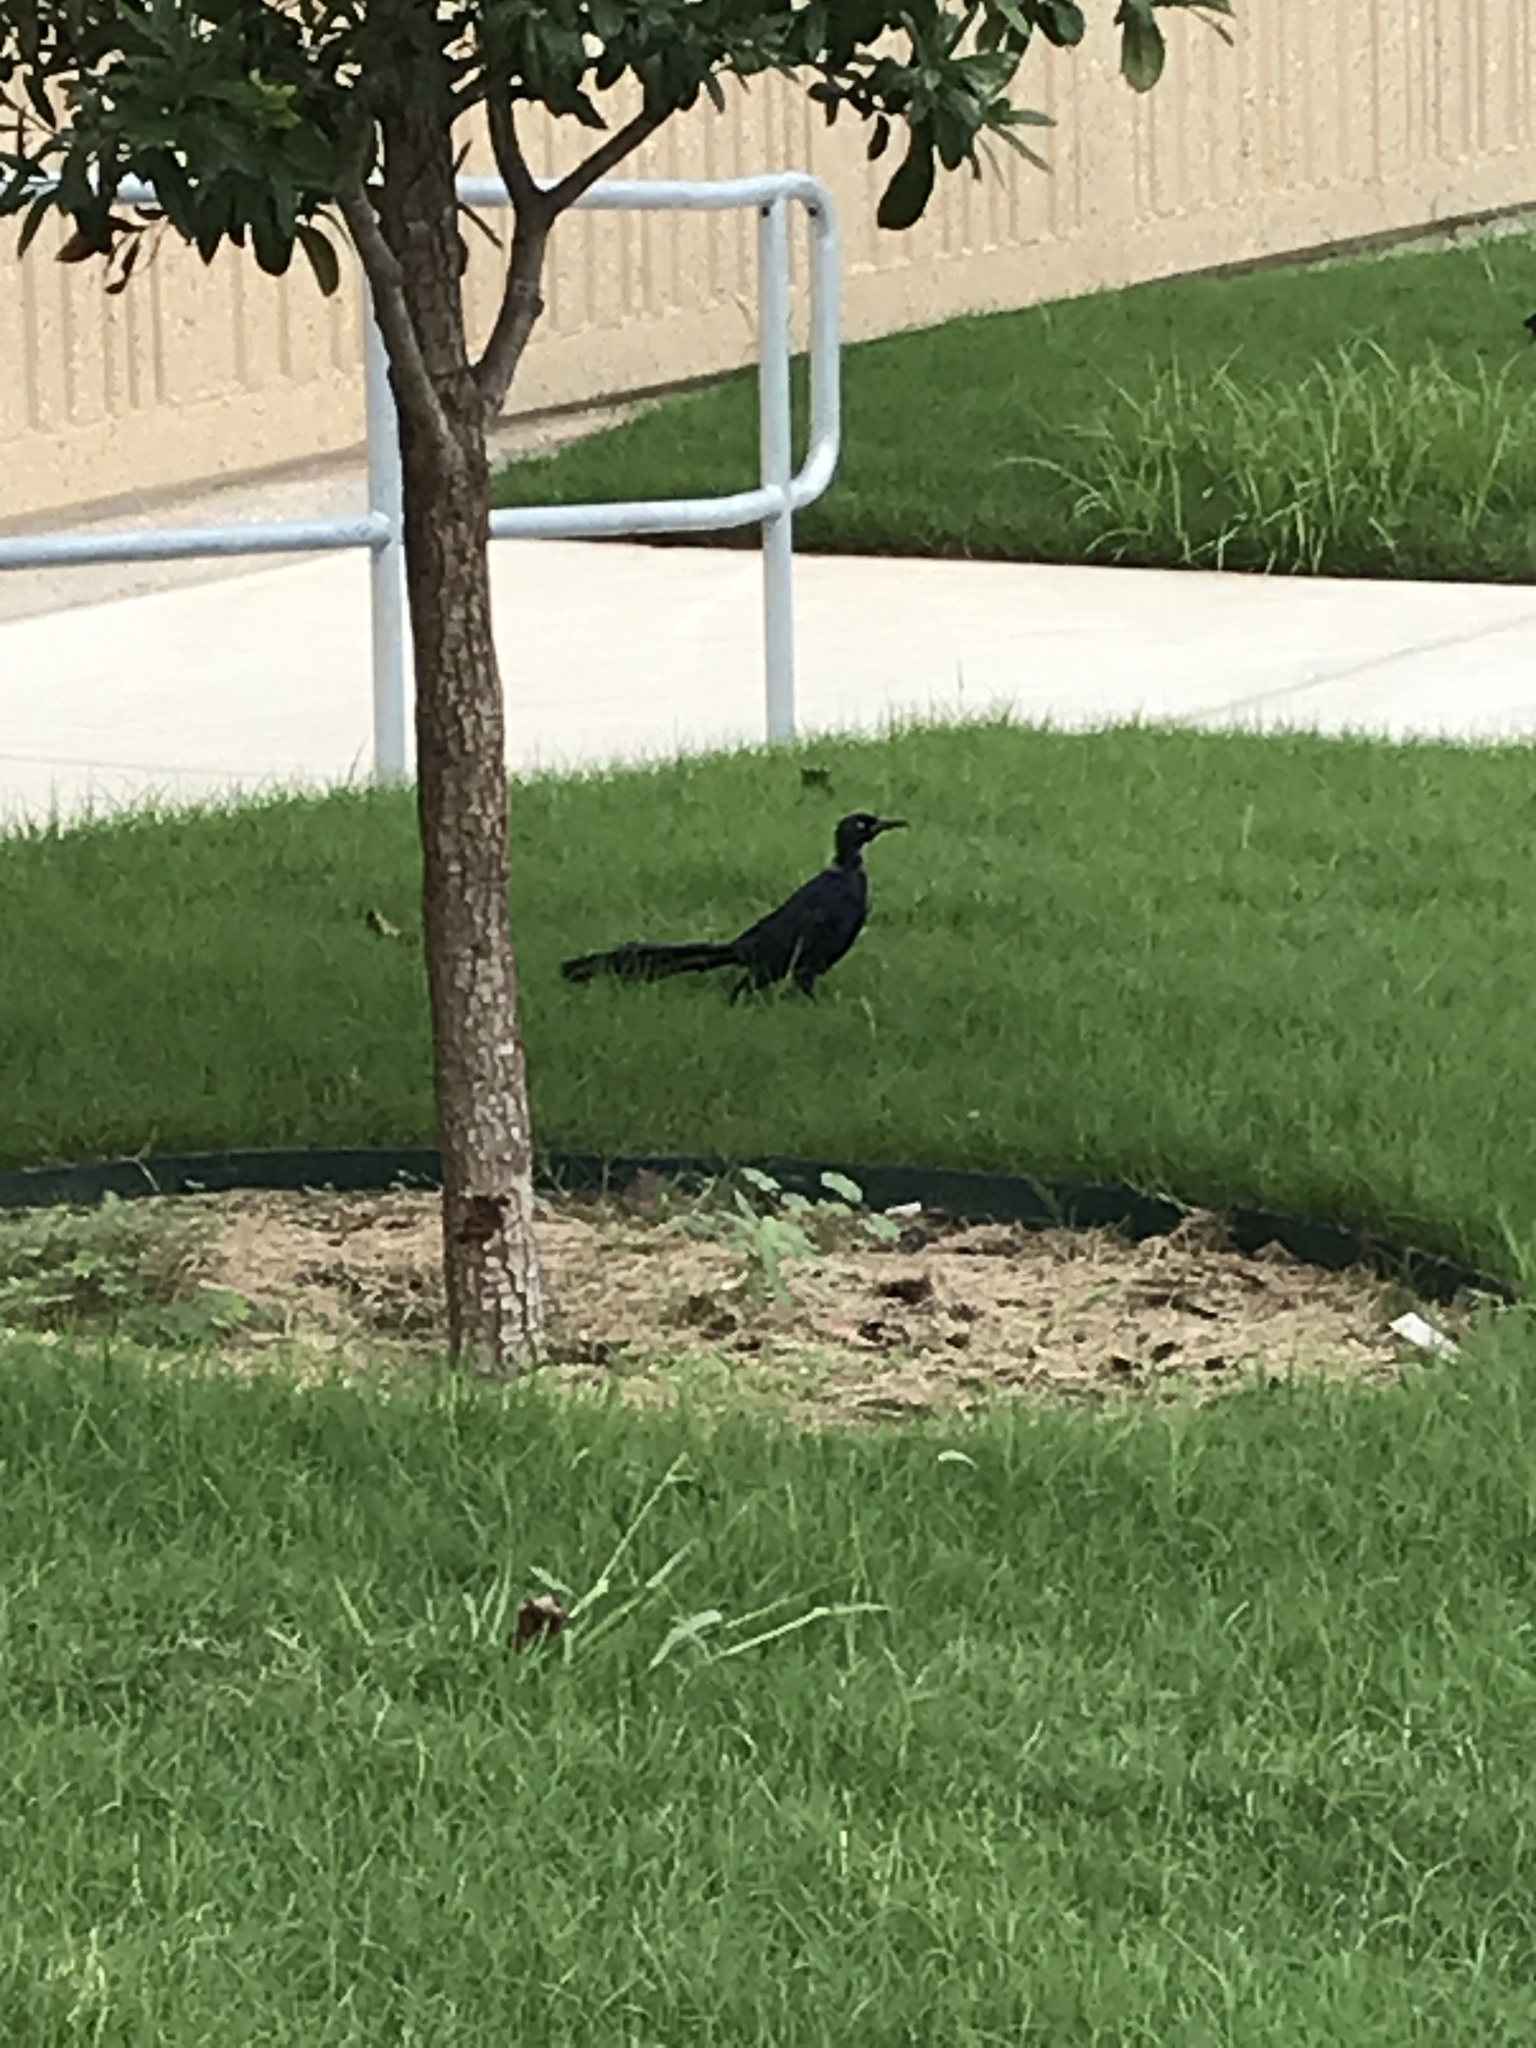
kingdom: Animalia
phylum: Chordata
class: Aves
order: Passeriformes
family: Icteridae
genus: Quiscalus
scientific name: Quiscalus mexicanus
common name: Great-tailed grackle
